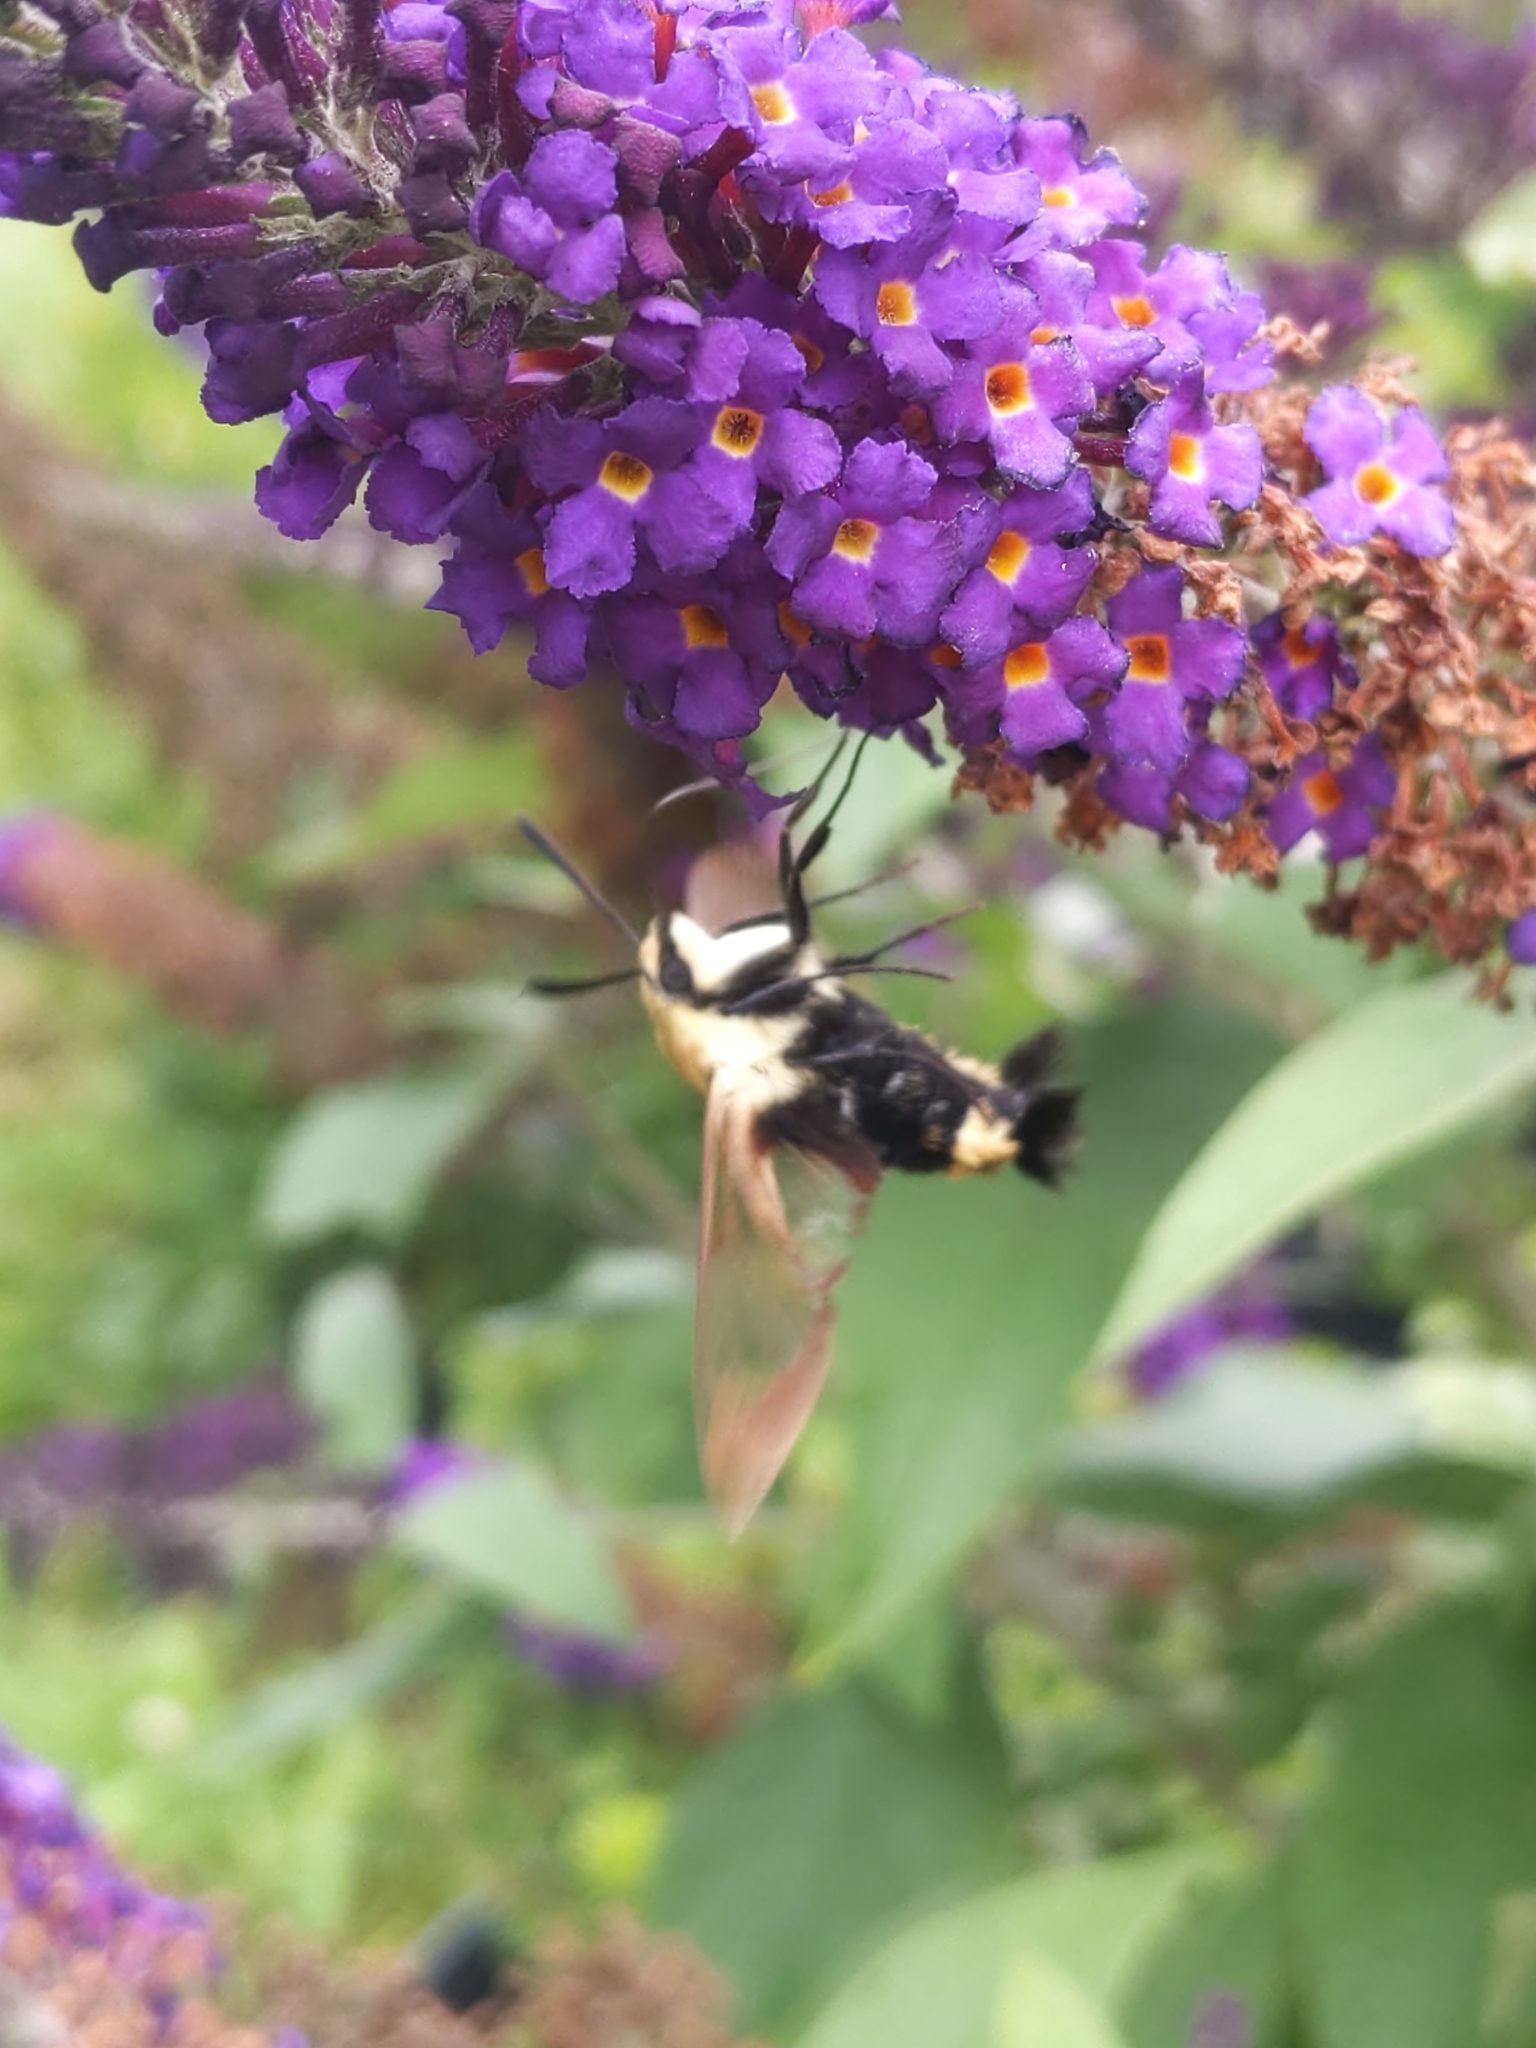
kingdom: Animalia
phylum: Arthropoda
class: Insecta
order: Lepidoptera
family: Sphingidae
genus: Hemaris
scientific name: Hemaris diffinis
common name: Bumblebee moth
